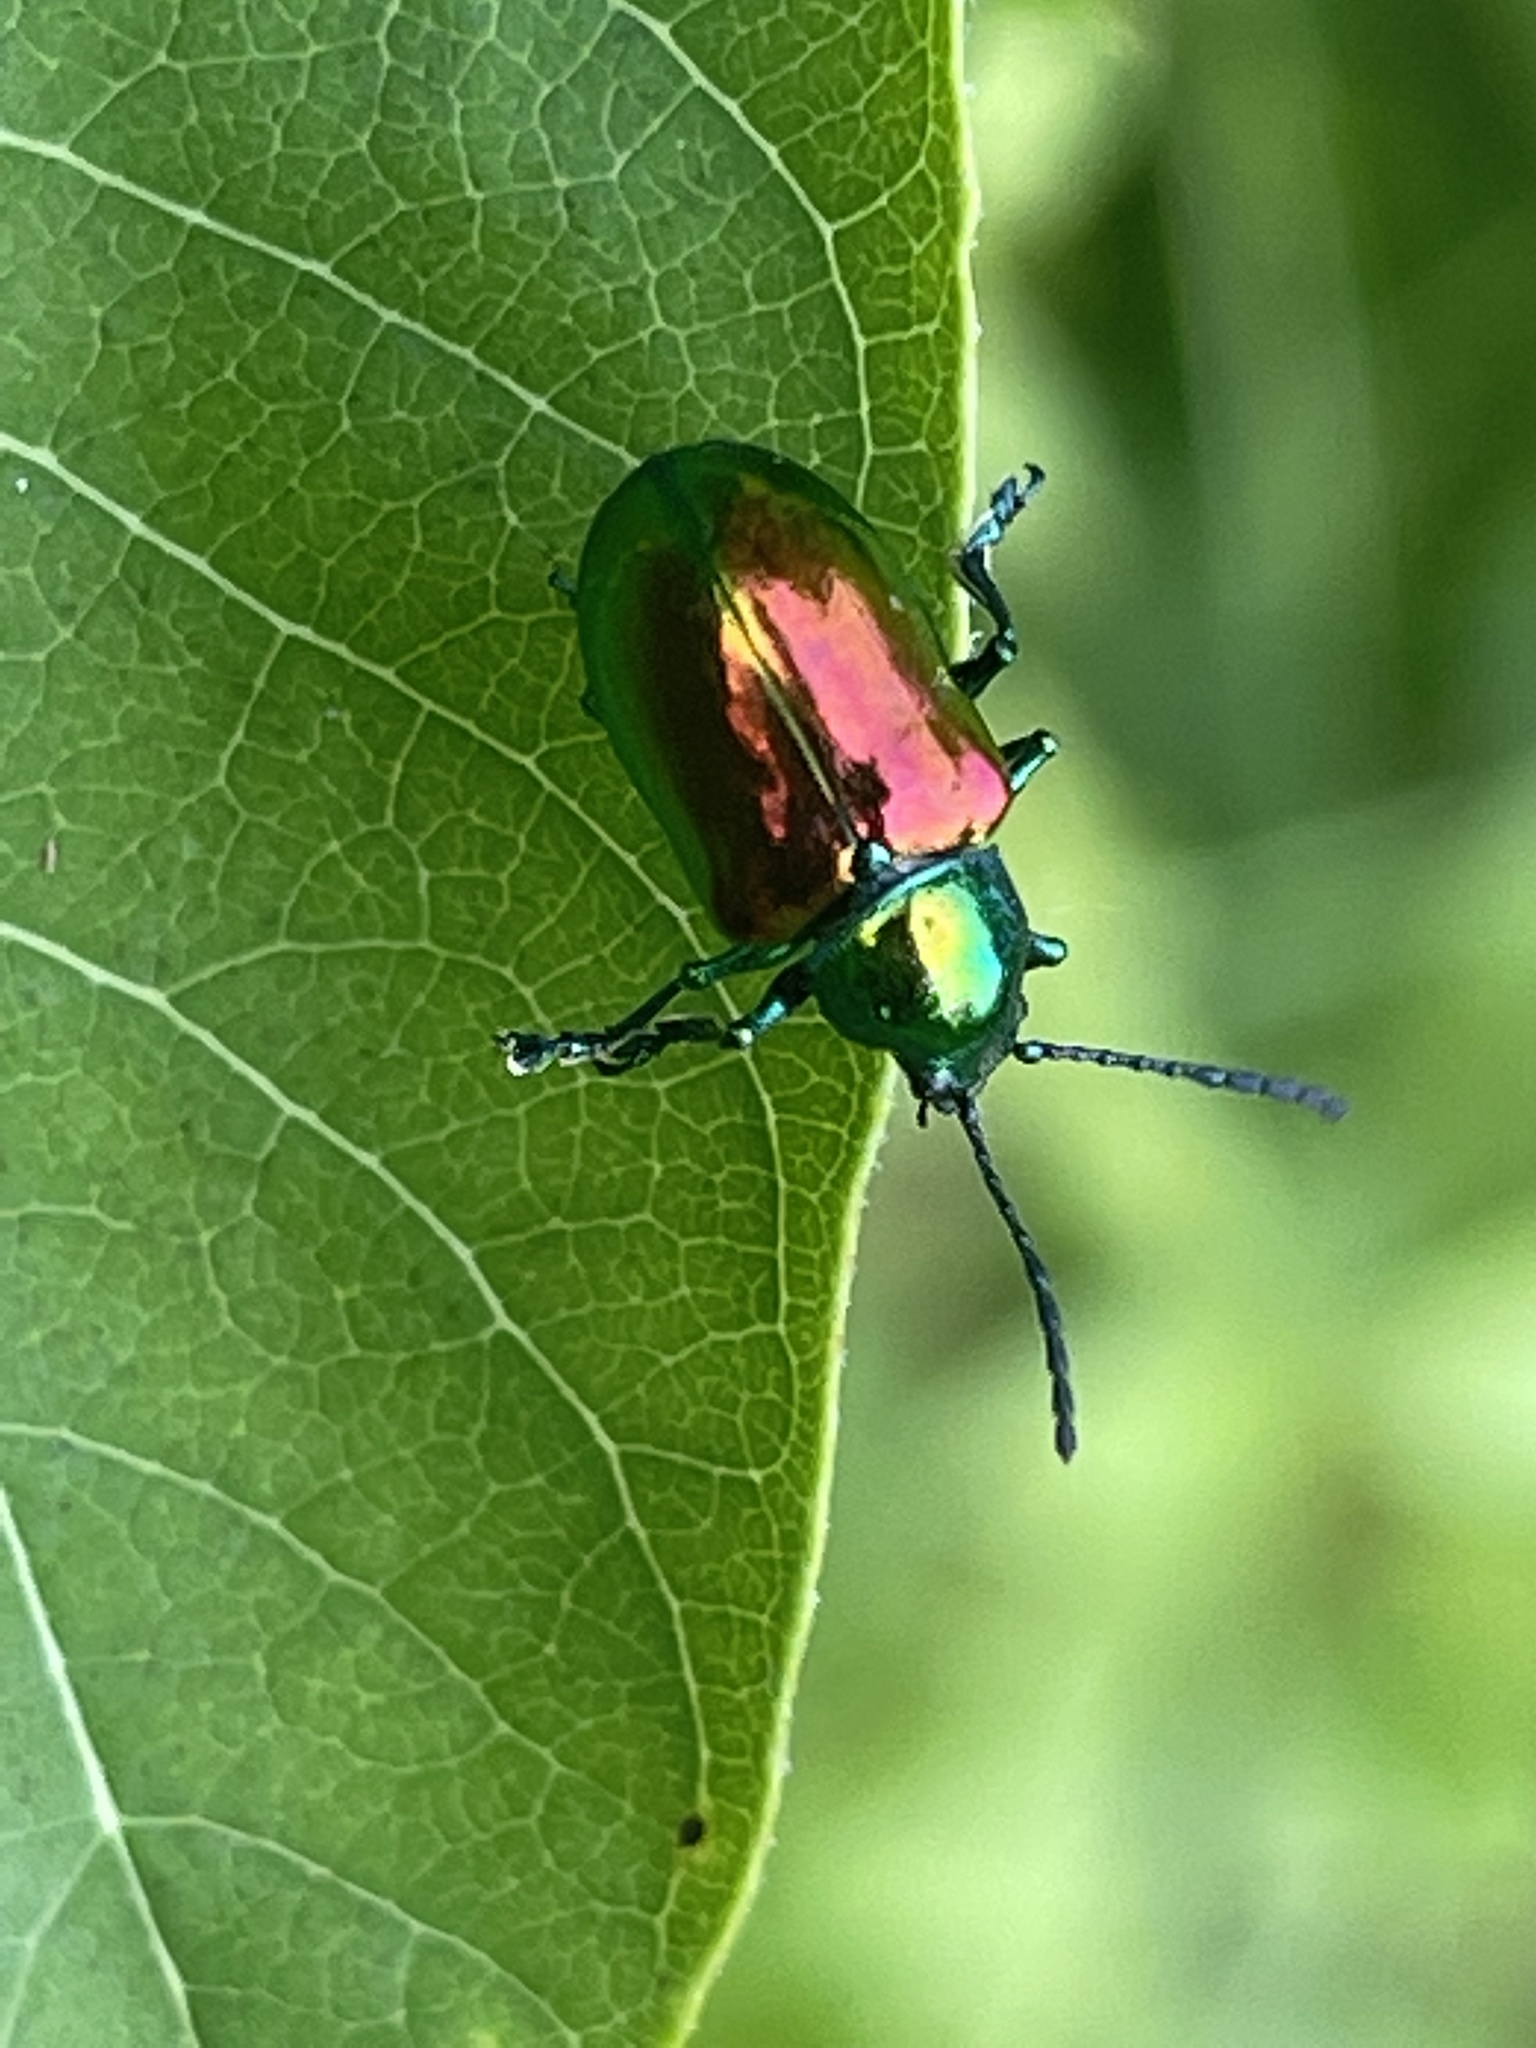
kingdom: Animalia
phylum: Arthropoda
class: Insecta
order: Coleoptera
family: Chrysomelidae
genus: Chrysochus
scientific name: Chrysochus auratus
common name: Dogbane leaf beetle
